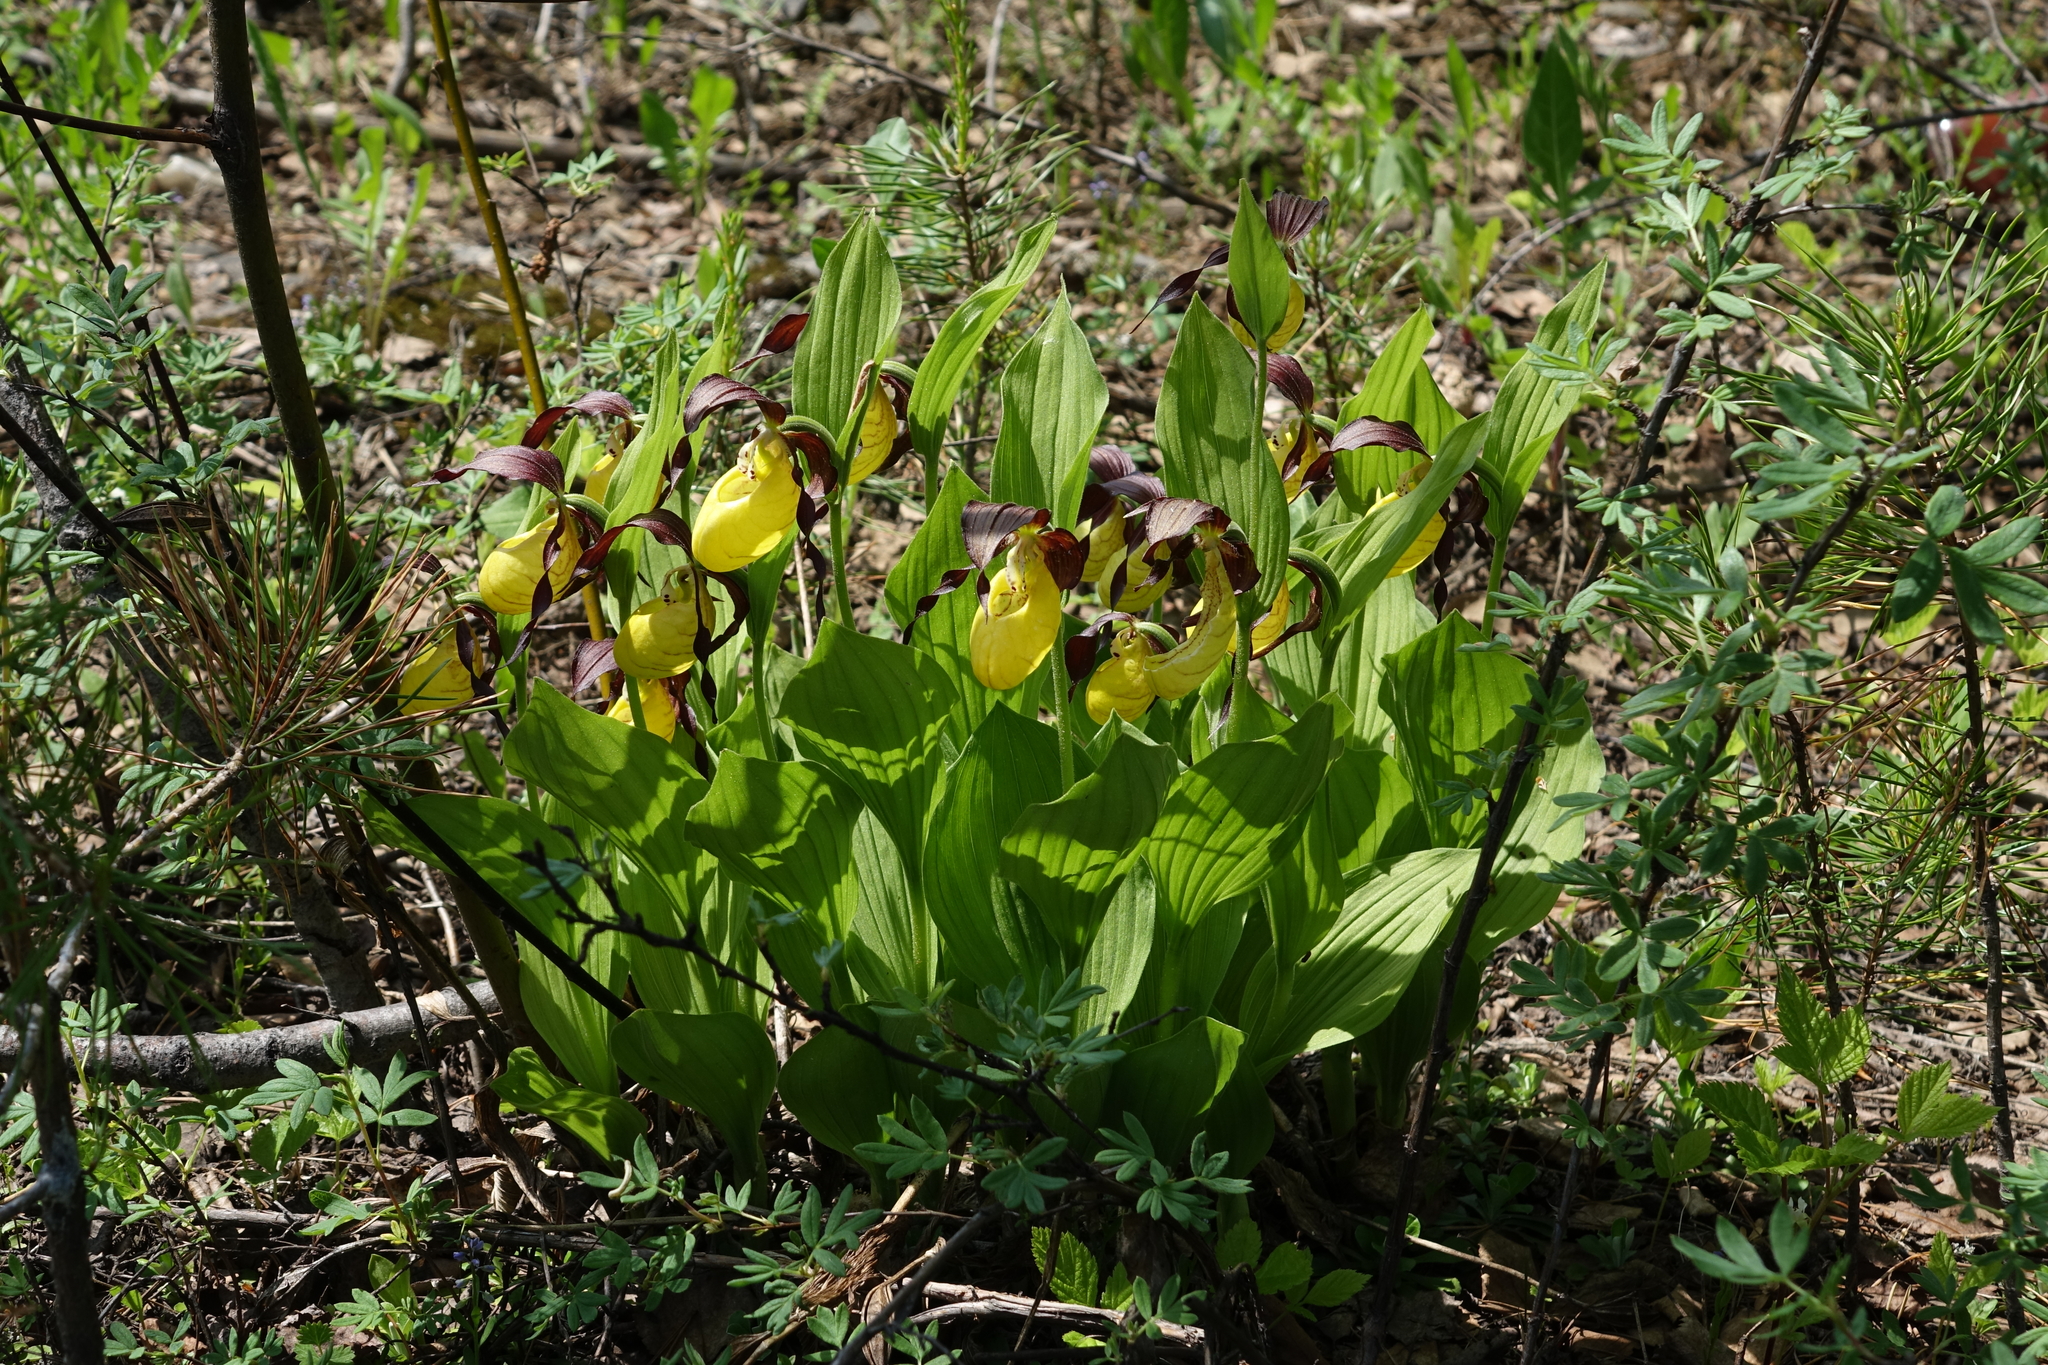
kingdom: Plantae
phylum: Tracheophyta
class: Liliopsida
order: Asparagales
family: Orchidaceae
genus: Cypripedium
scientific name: Cypripedium calceolus
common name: Lady's-slipper
